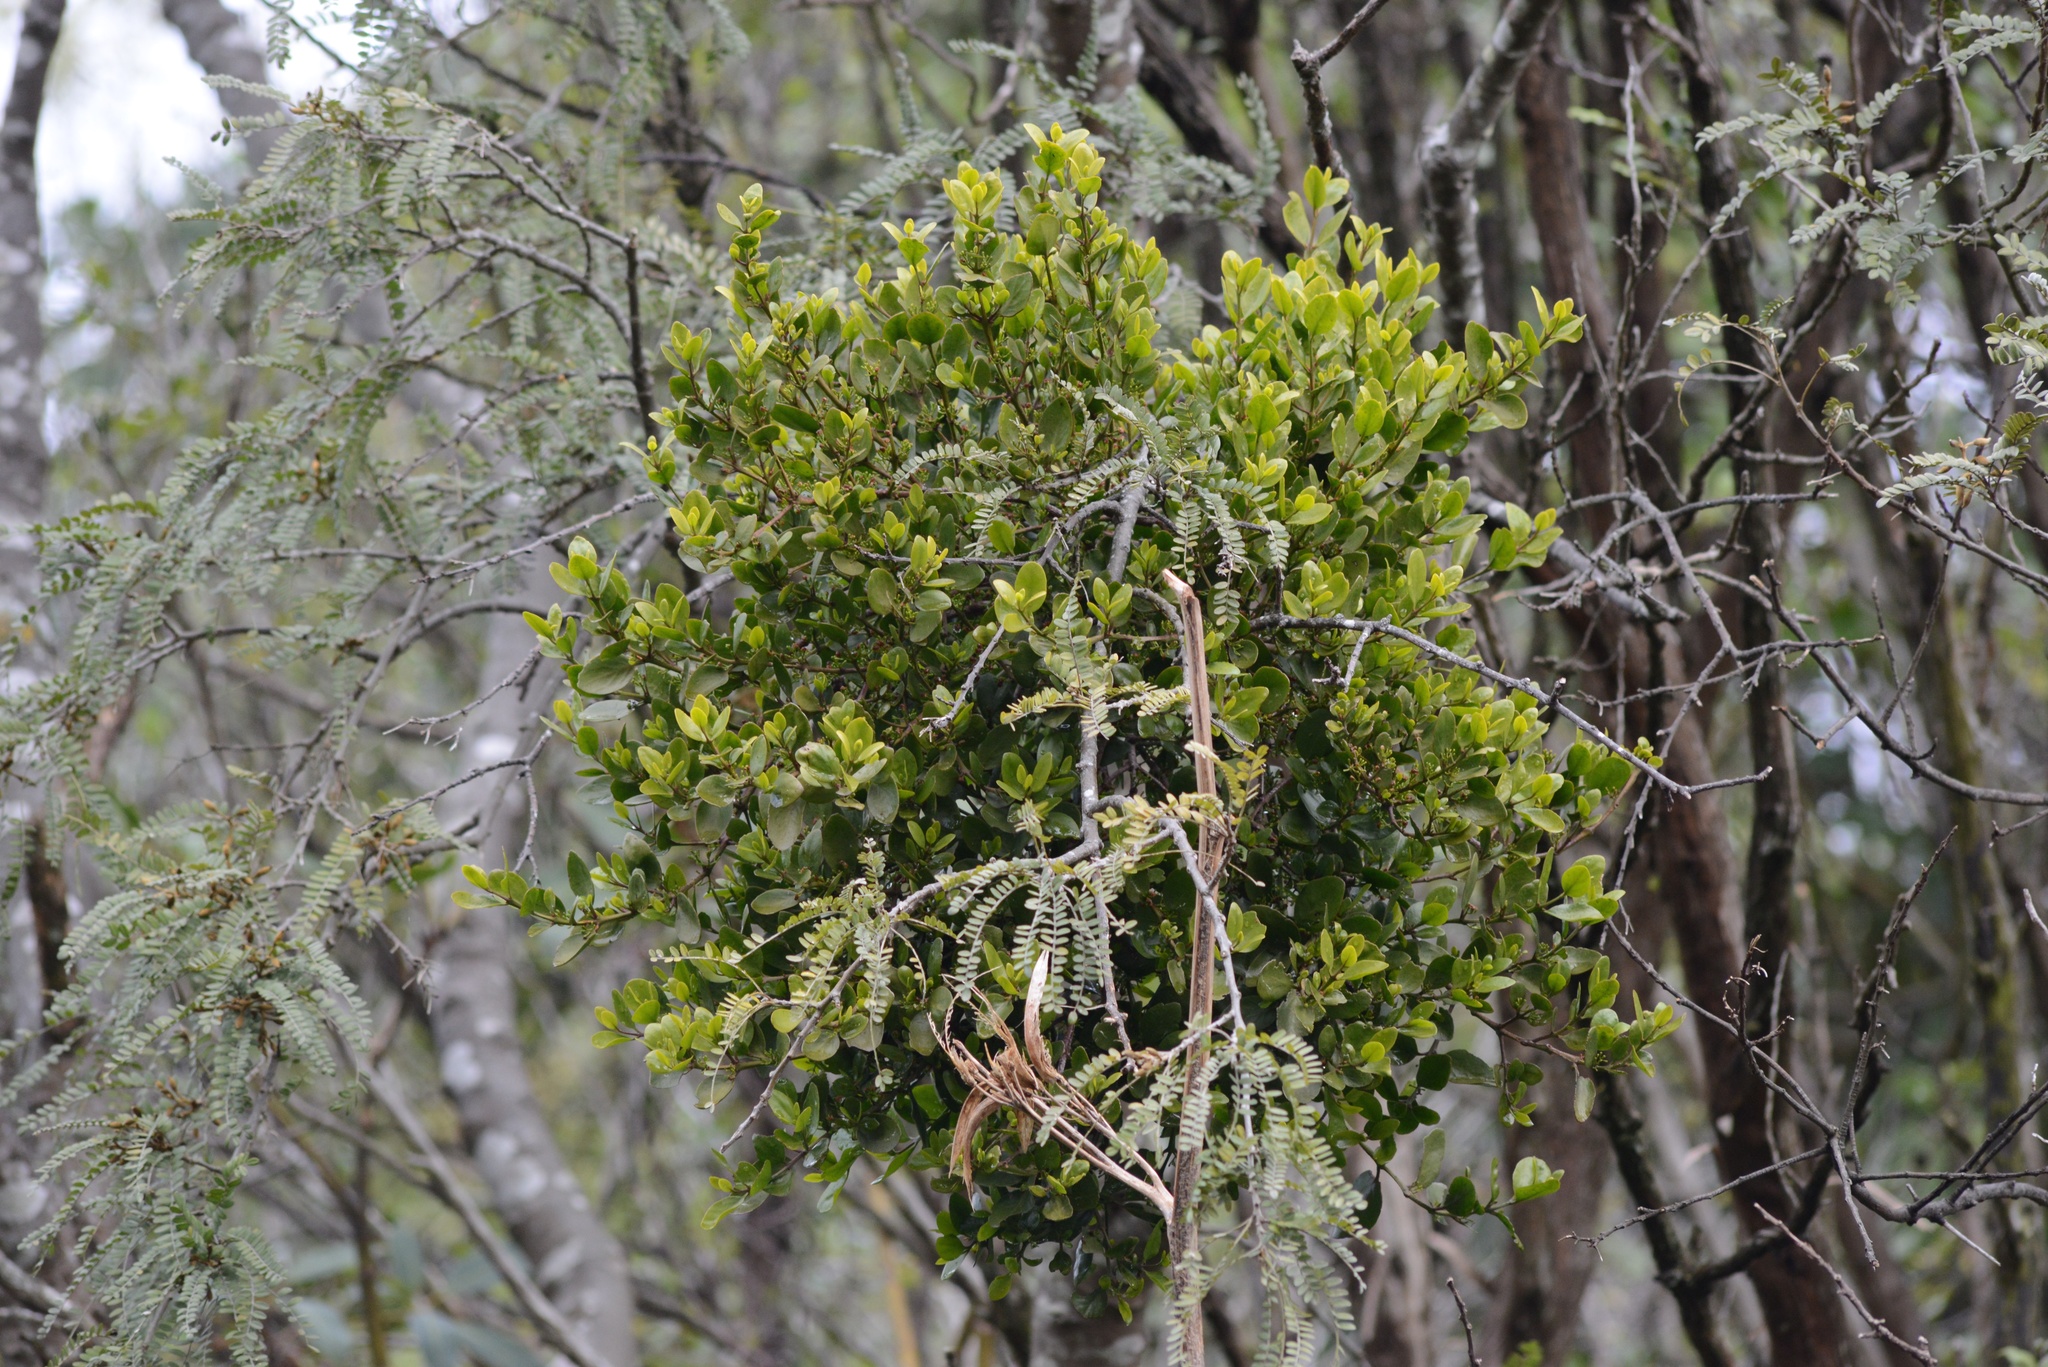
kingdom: Plantae
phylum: Tracheophyta
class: Magnoliopsida
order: Santalales
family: Loranthaceae
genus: Ileostylus
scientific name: Ileostylus micranthus
